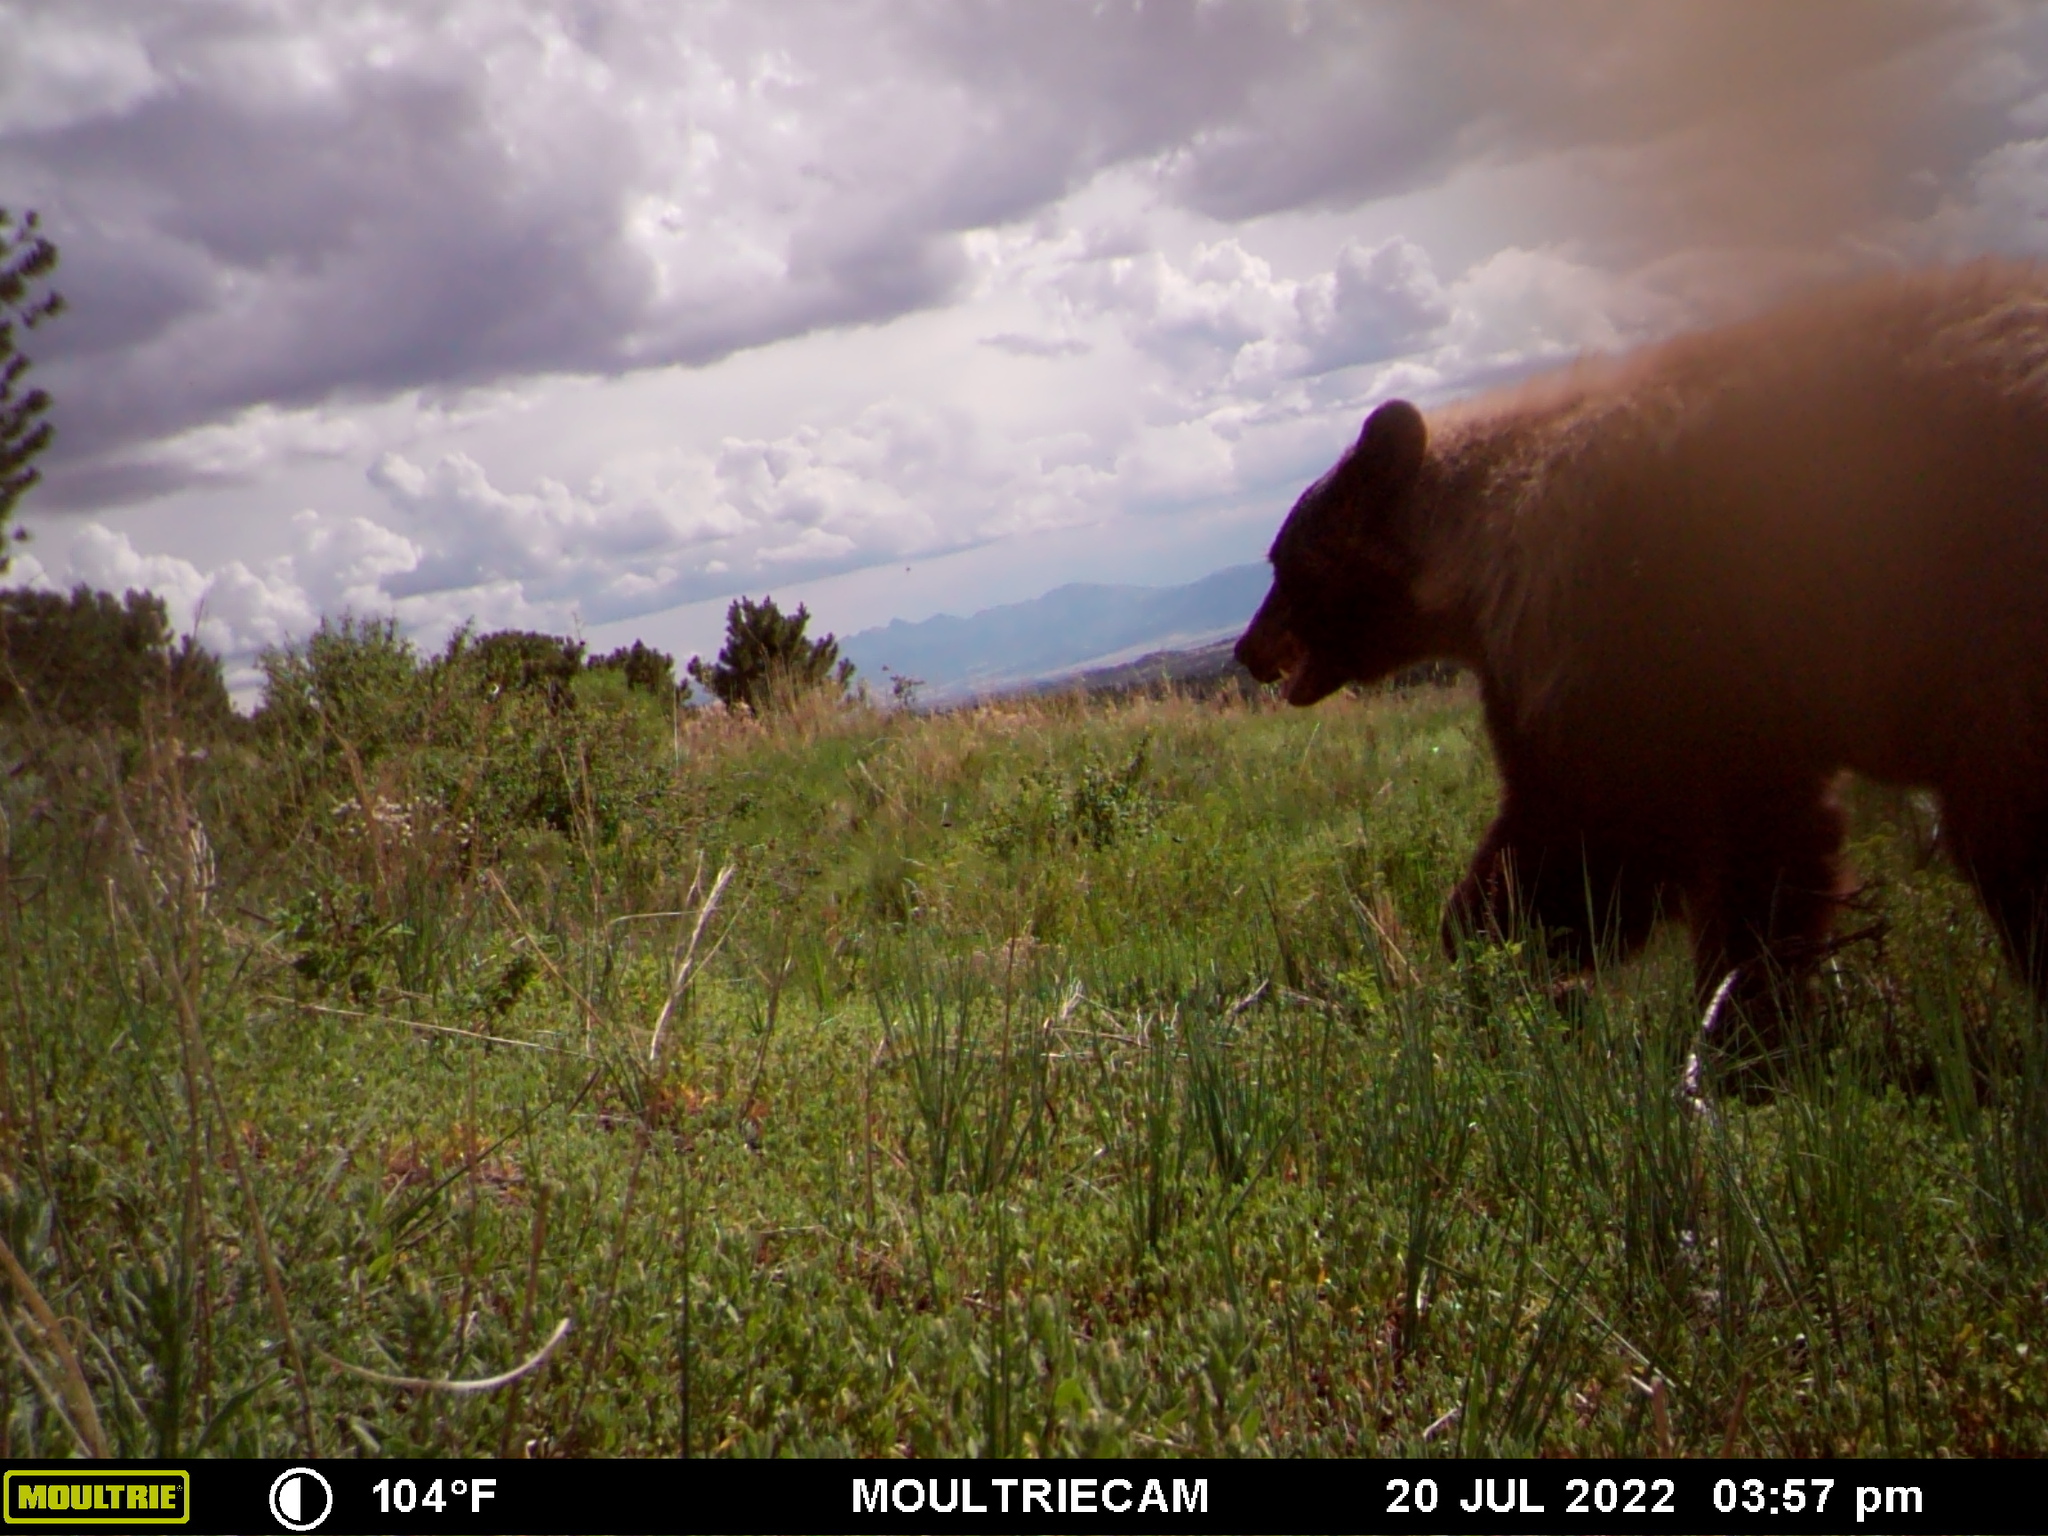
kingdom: Animalia
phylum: Chordata
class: Mammalia
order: Carnivora
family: Ursidae
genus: Ursus
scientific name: Ursus americanus
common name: American black bear
